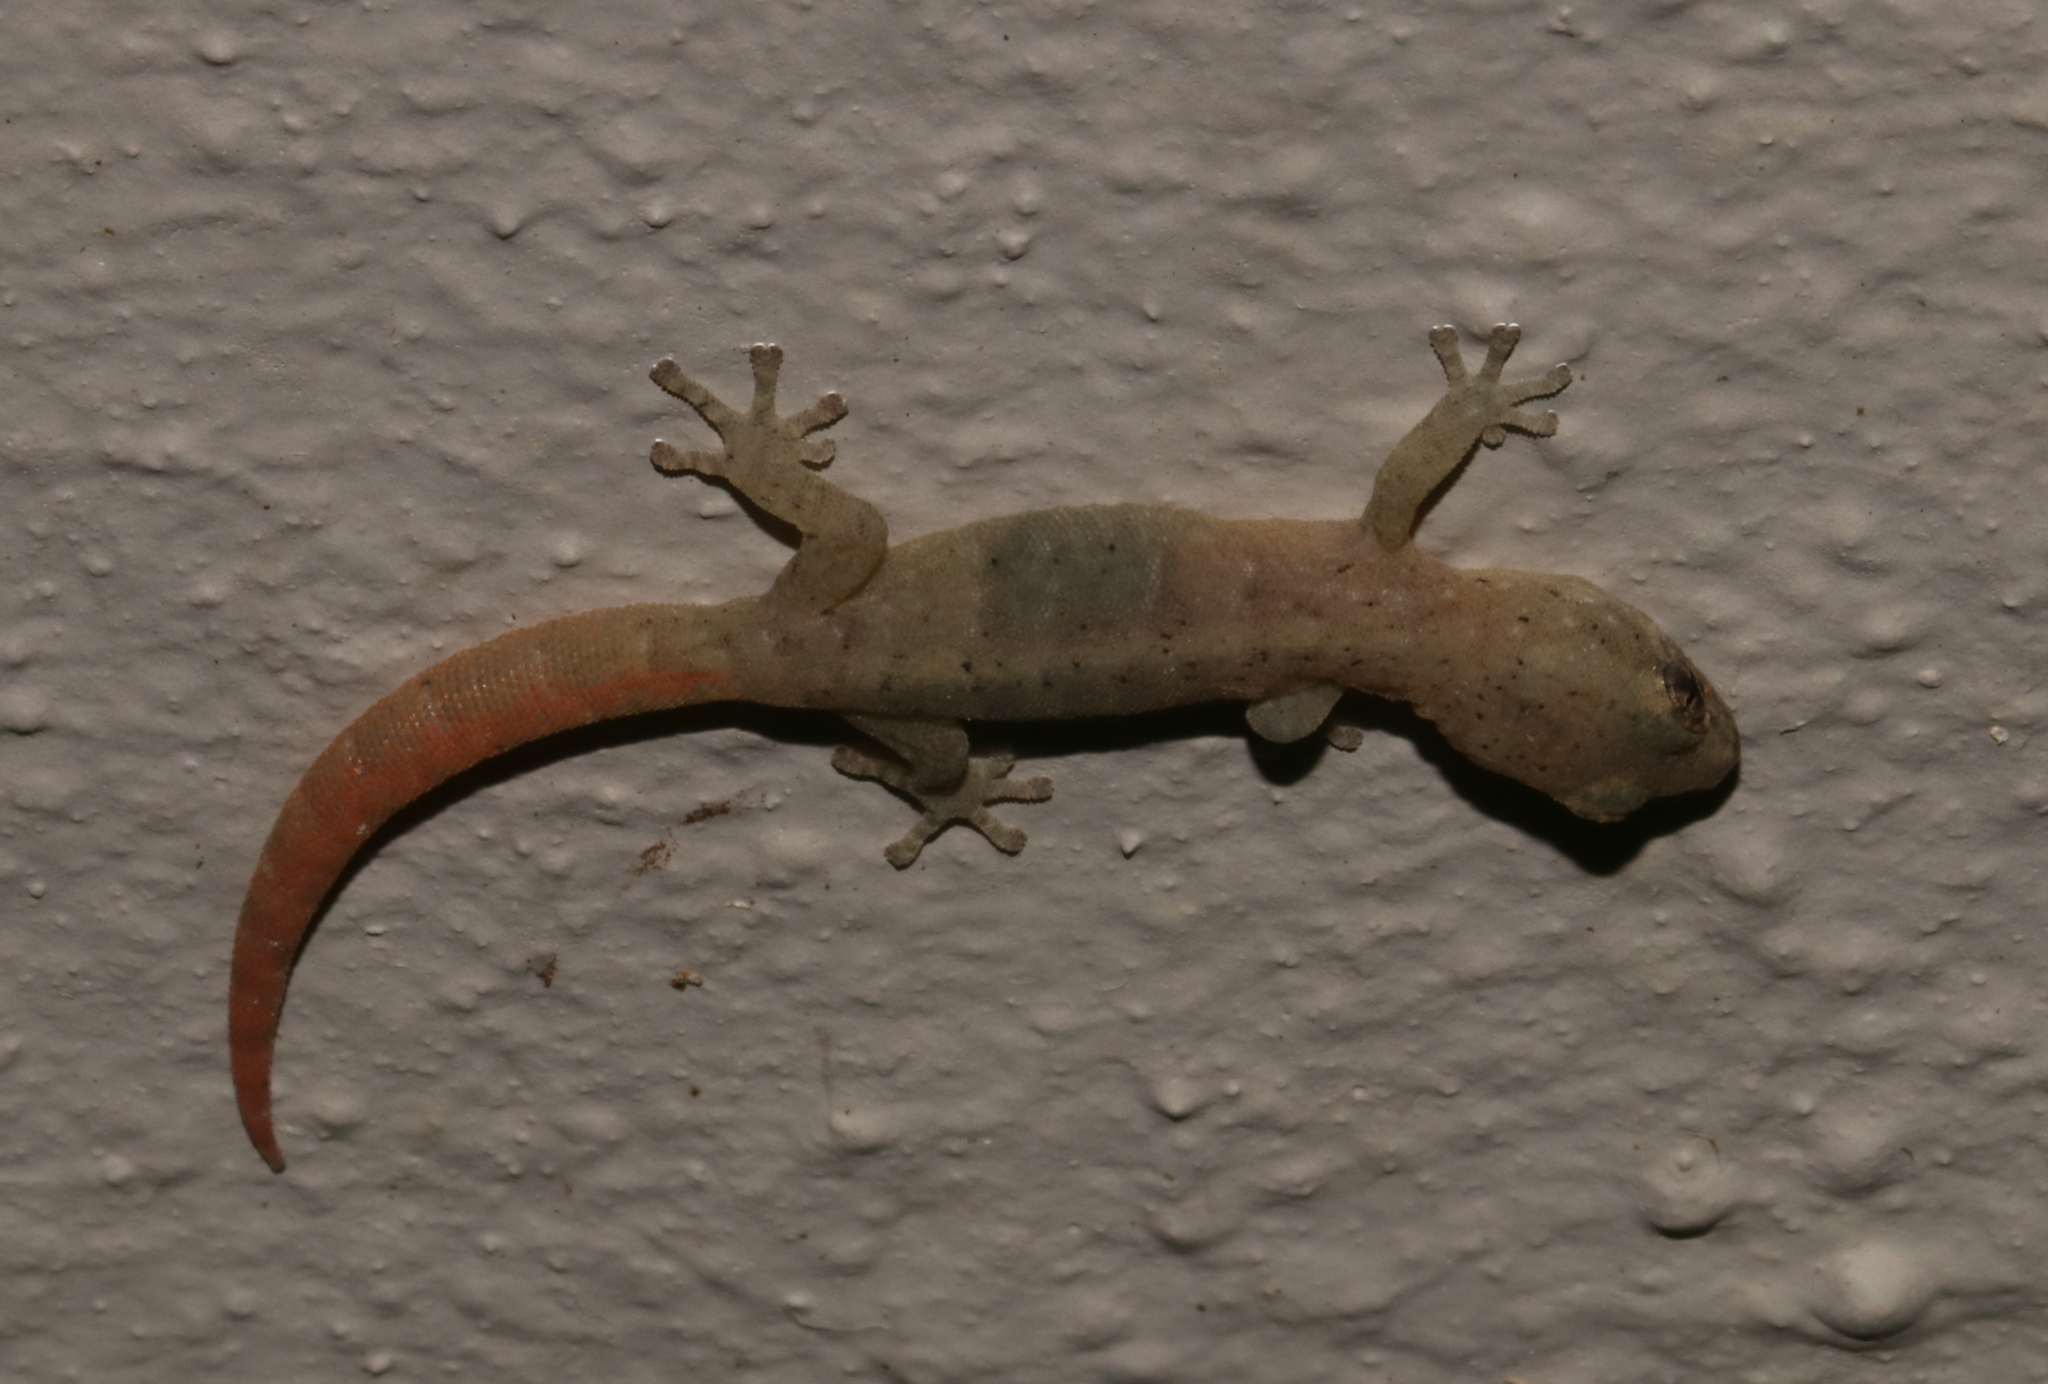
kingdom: Animalia
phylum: Chordata
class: Squamata
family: Gekkonidae
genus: Afrogecko
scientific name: Afrogecko porphyreus
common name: Marbled leaf-toed gecko
